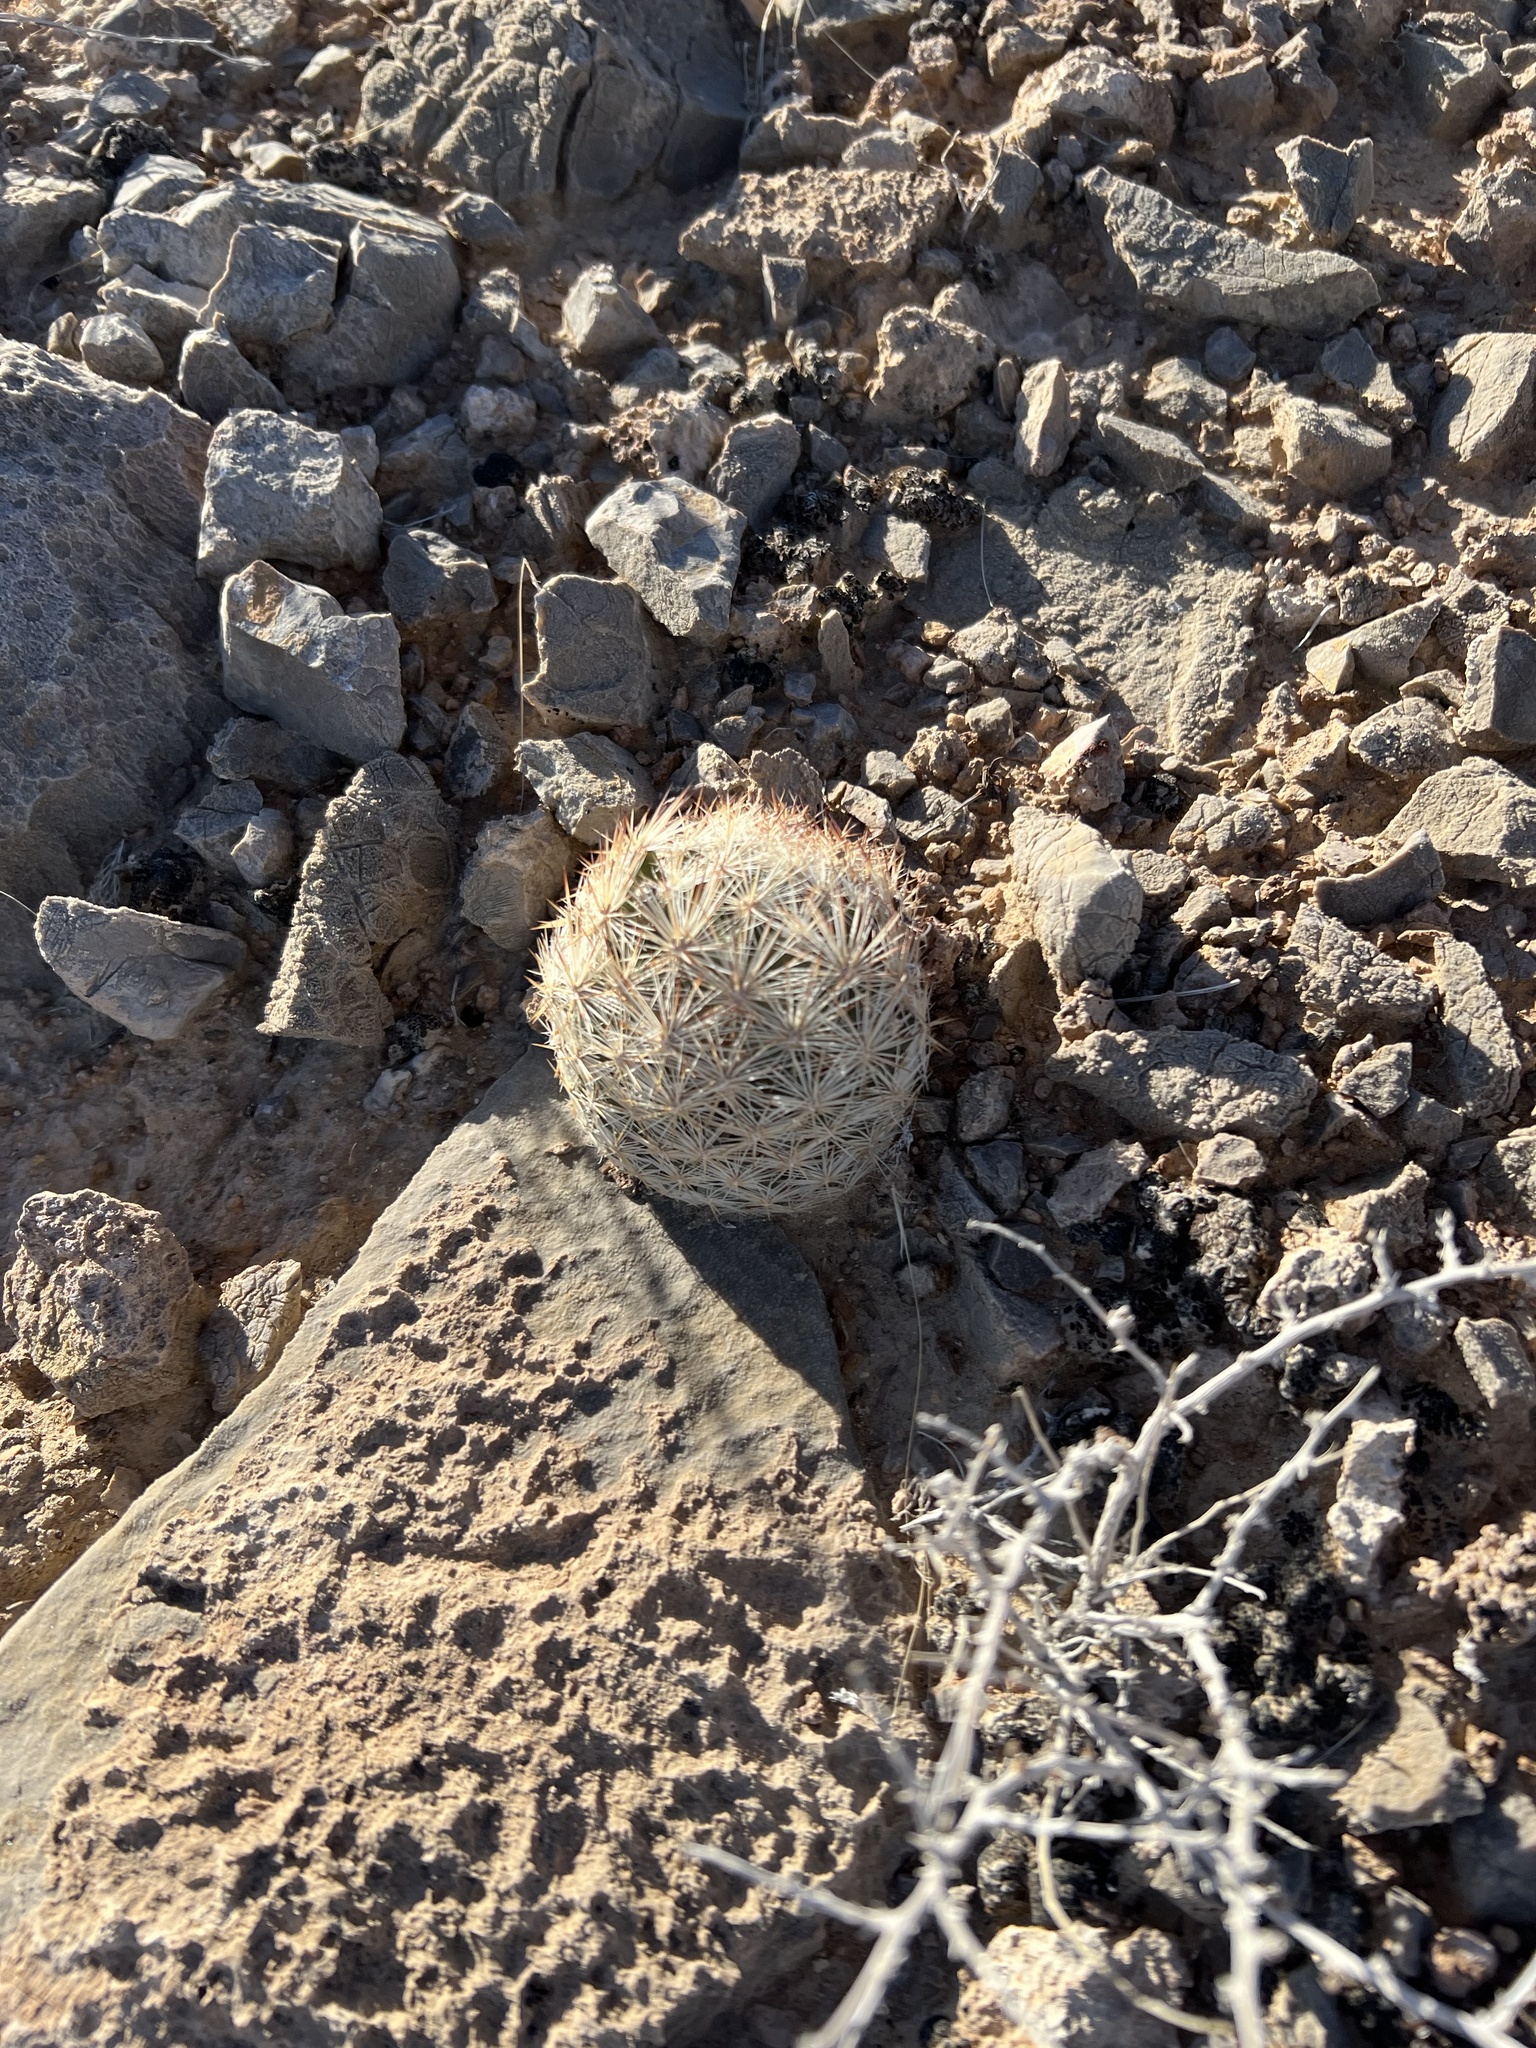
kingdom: Plantae
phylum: Tracheophyta
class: Magnoliopsida
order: Caryophyllales
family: Cactaceae
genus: Pelecyphora
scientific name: Pelecyphora dasyacantha
